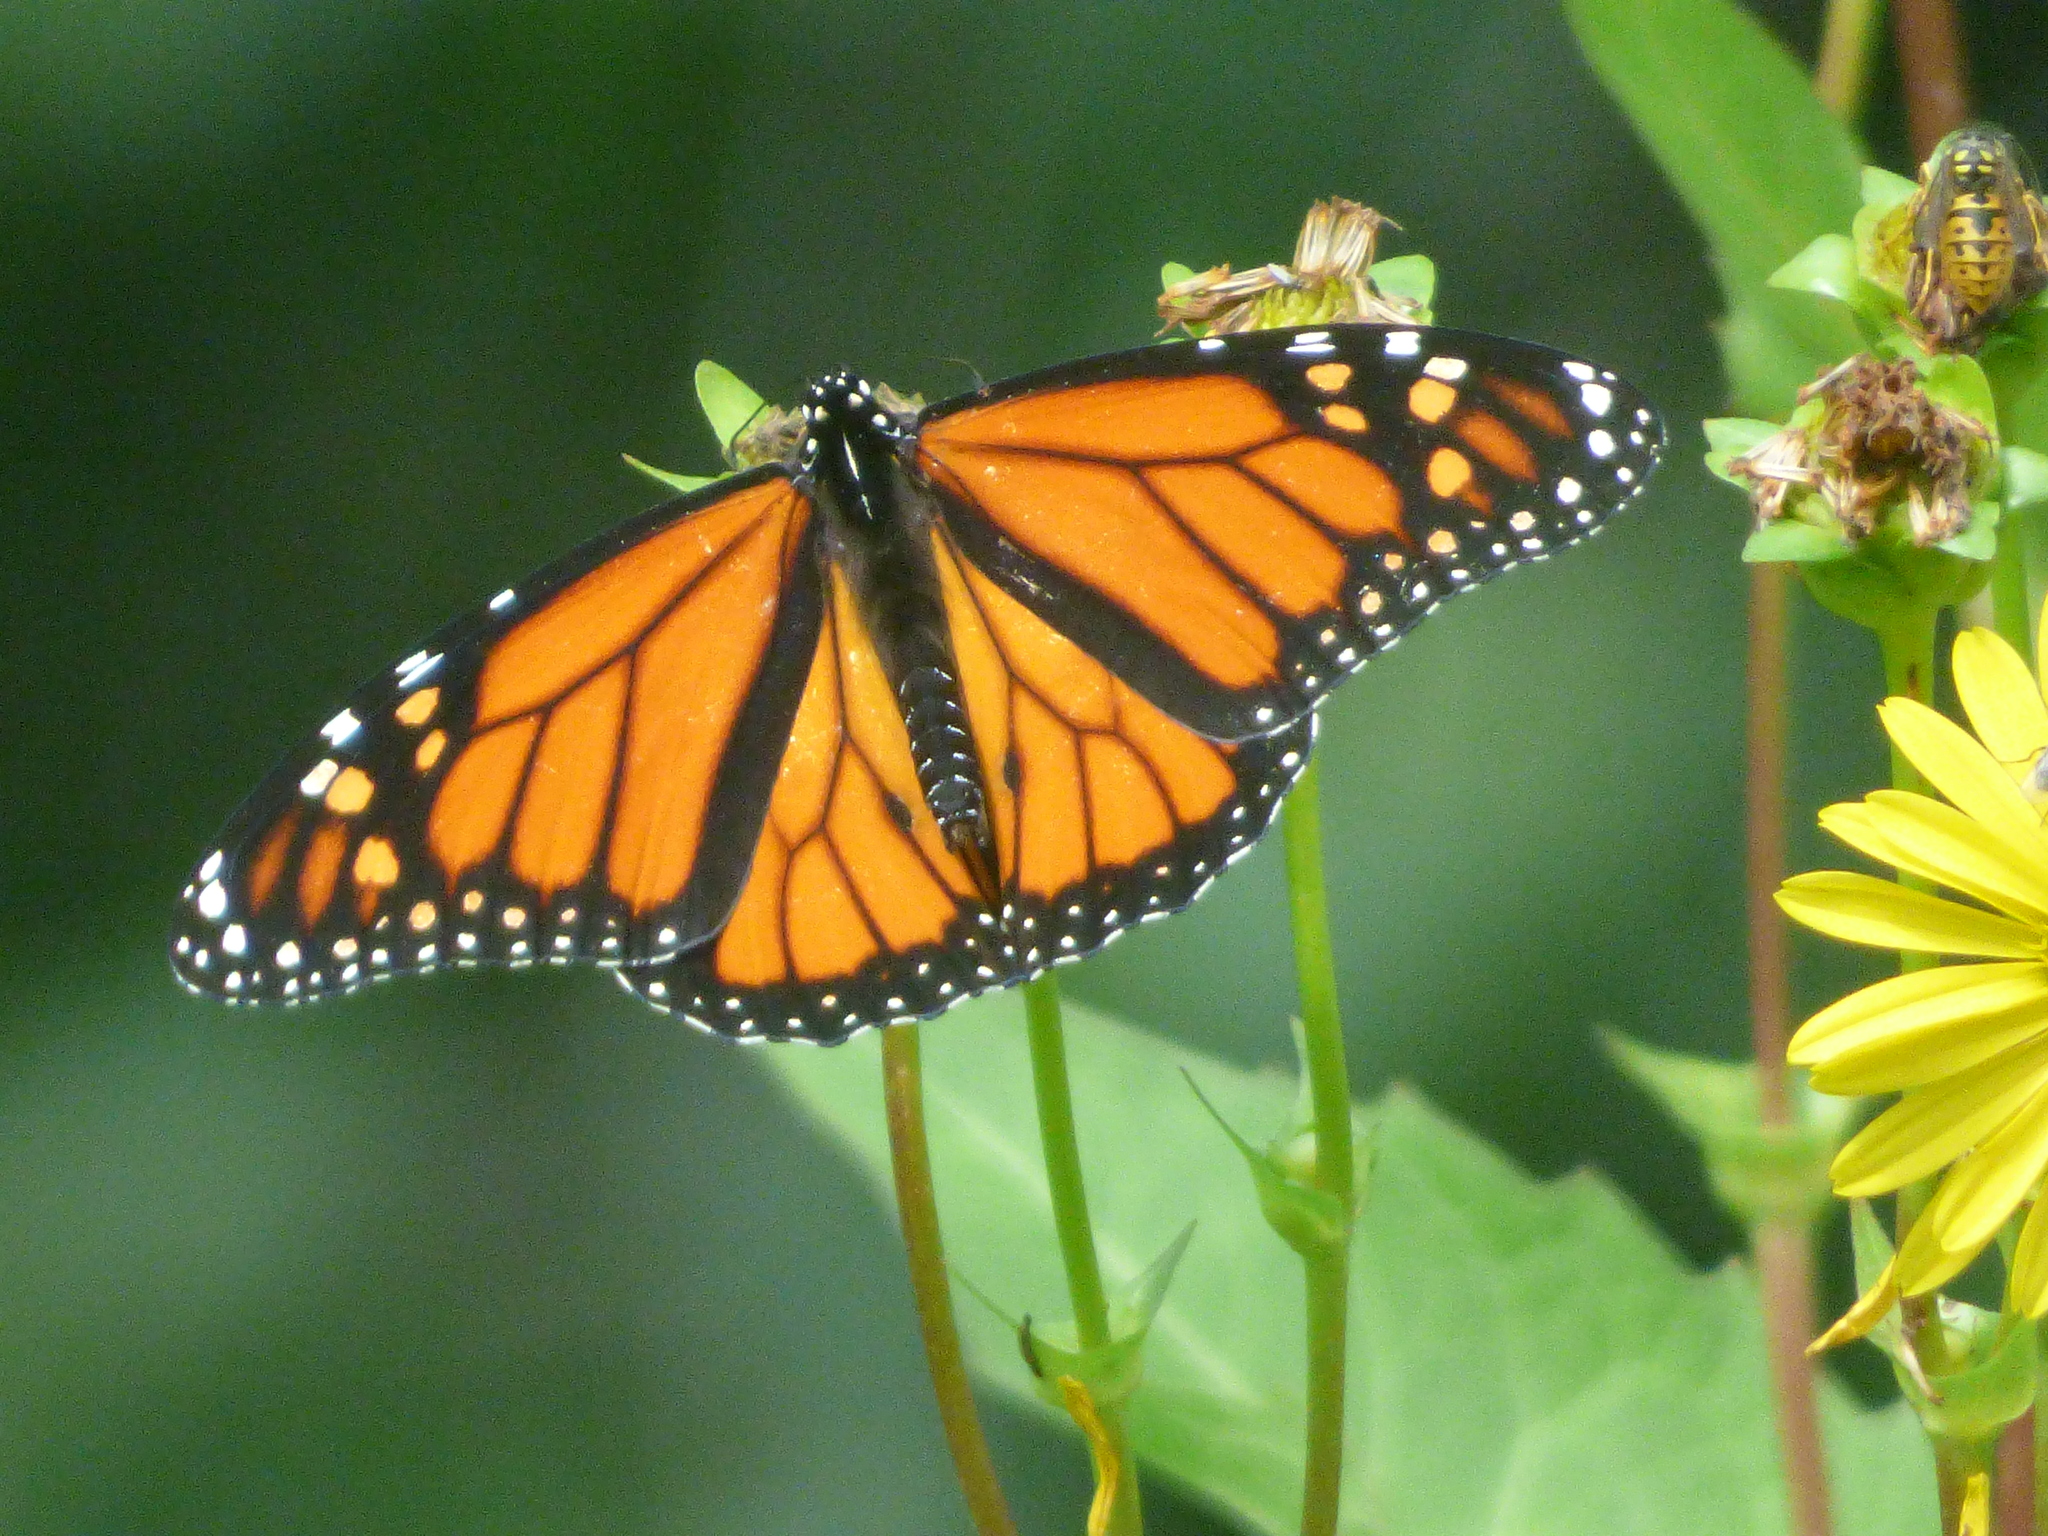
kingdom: Animalia
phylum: Arthropoda
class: Insecta
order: Lepidoptera
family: Nymphalidae
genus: Danaus
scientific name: Danaus plexippus
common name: Monarch
